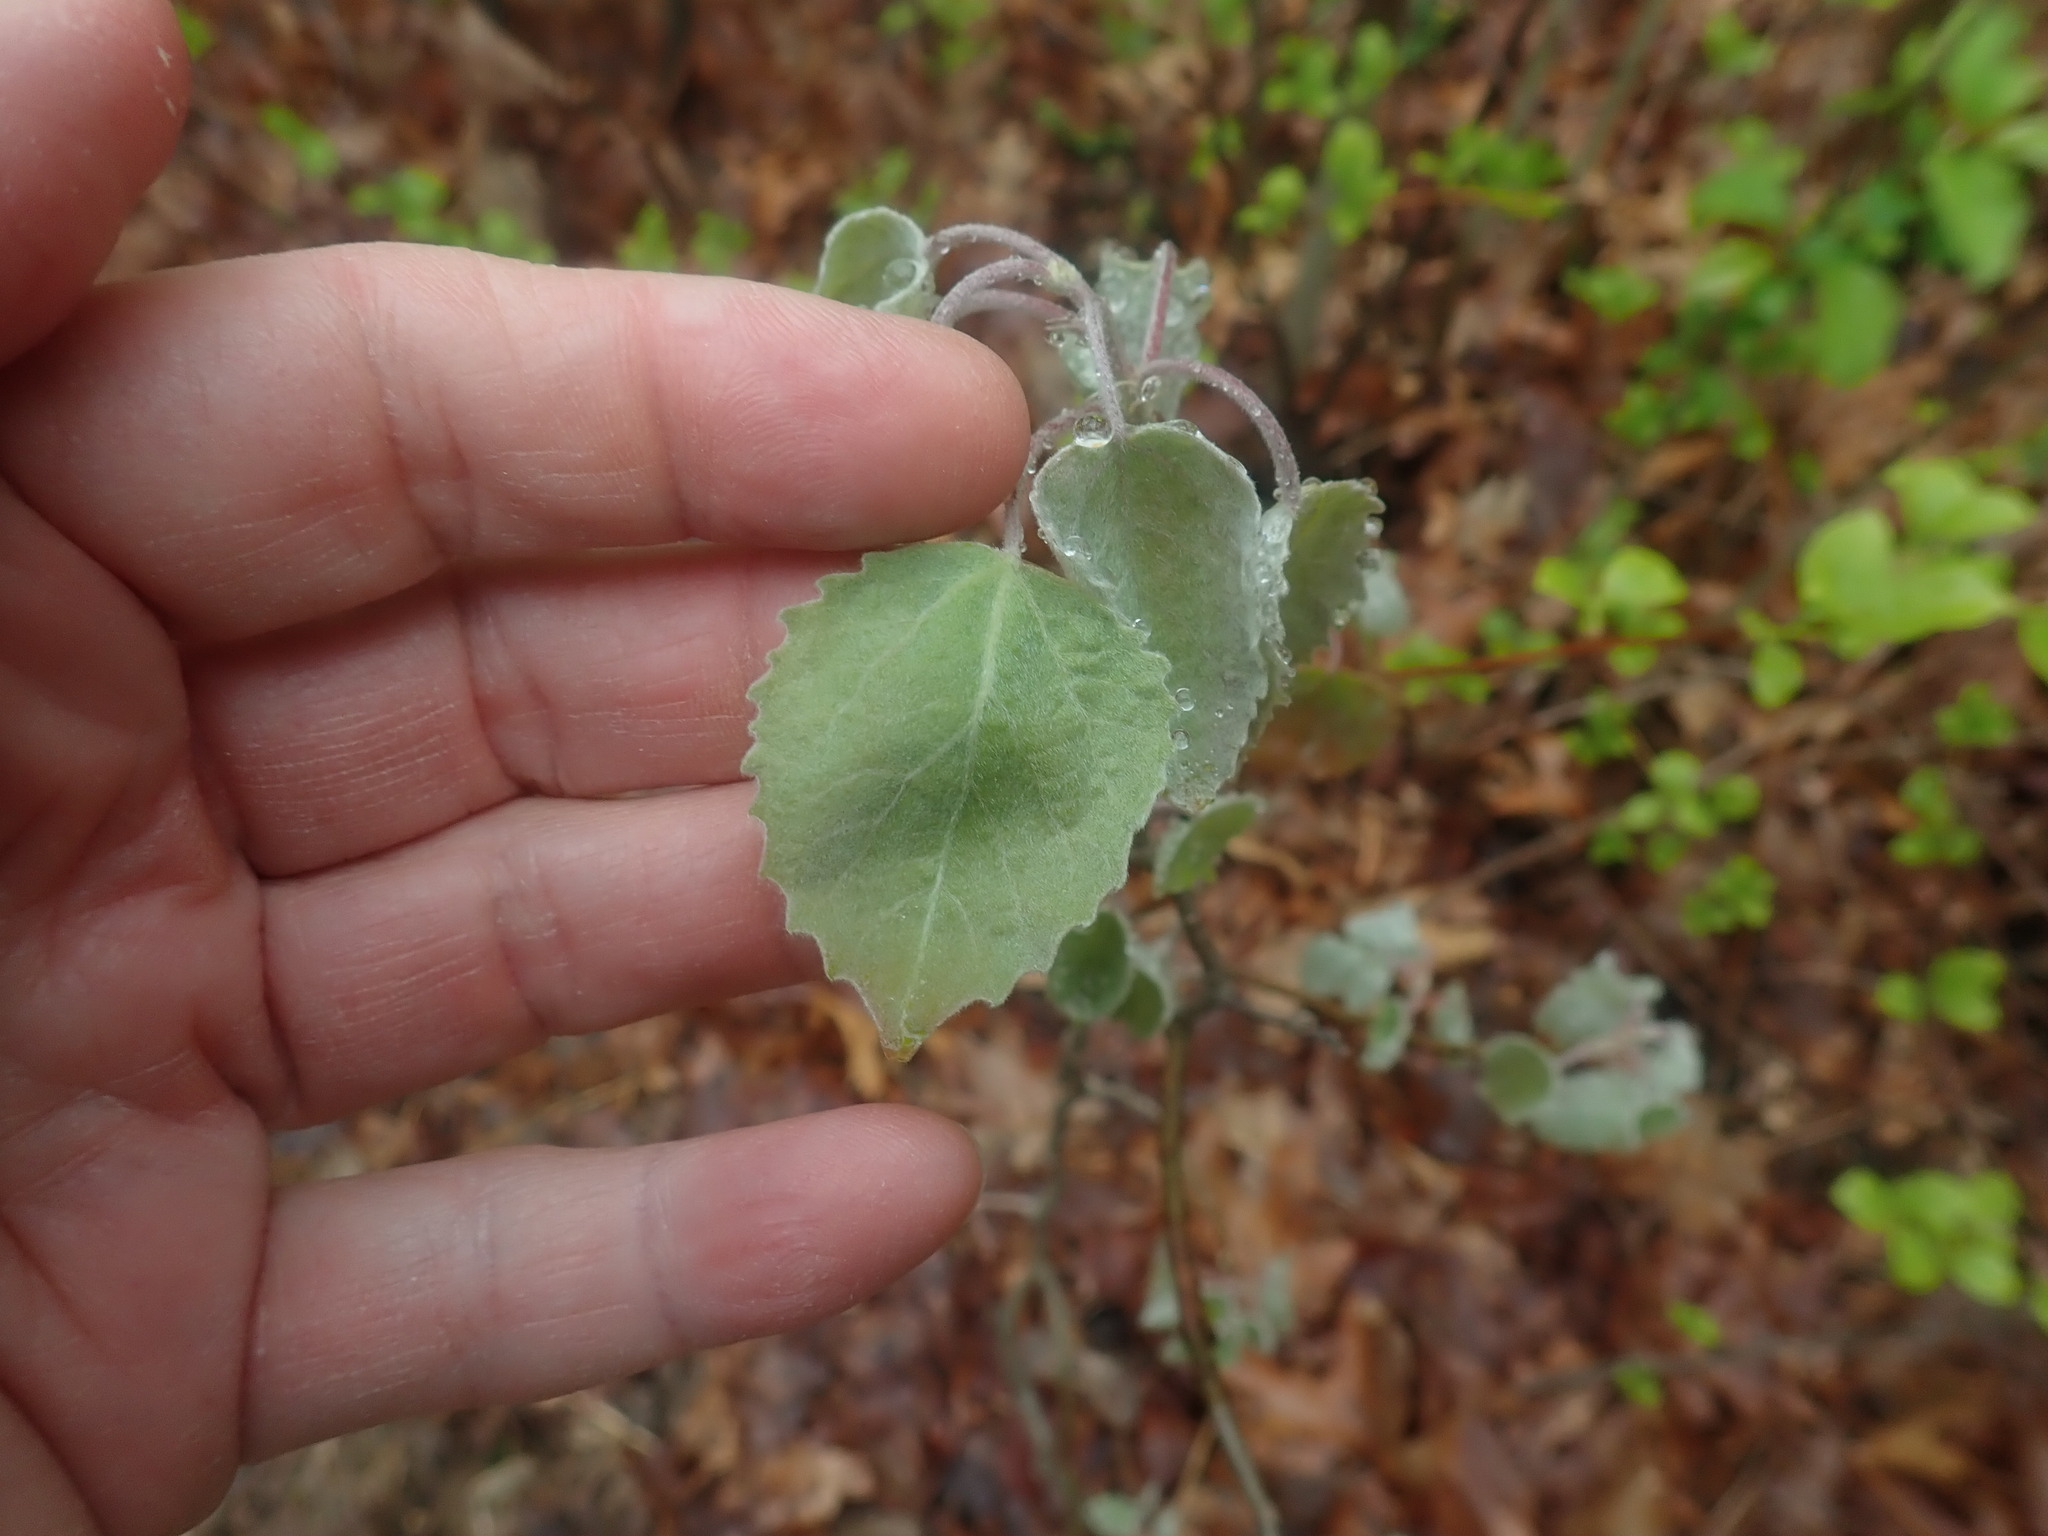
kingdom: Plantae
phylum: Tracheophyta
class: Magnoliopsida
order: Malpighiales
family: Salicaceae
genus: Populus
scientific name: Populus grandidentata
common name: Bigtooth aspen
